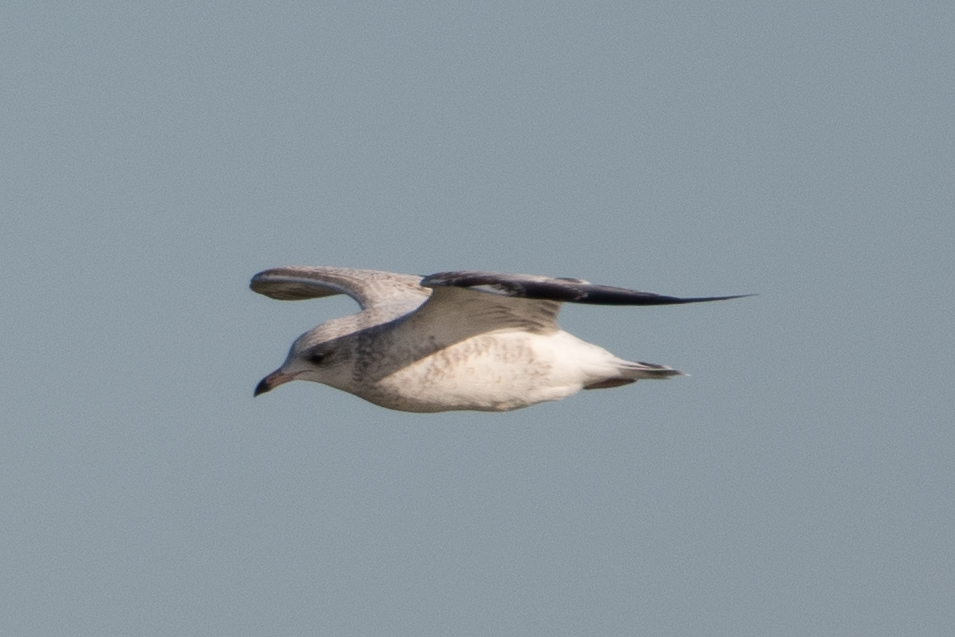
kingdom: Animalia
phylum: Chordata
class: Aves
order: Charadriiformes
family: Laridae
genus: Larus
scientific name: Larus delawarensis
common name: Ring-billed gull
